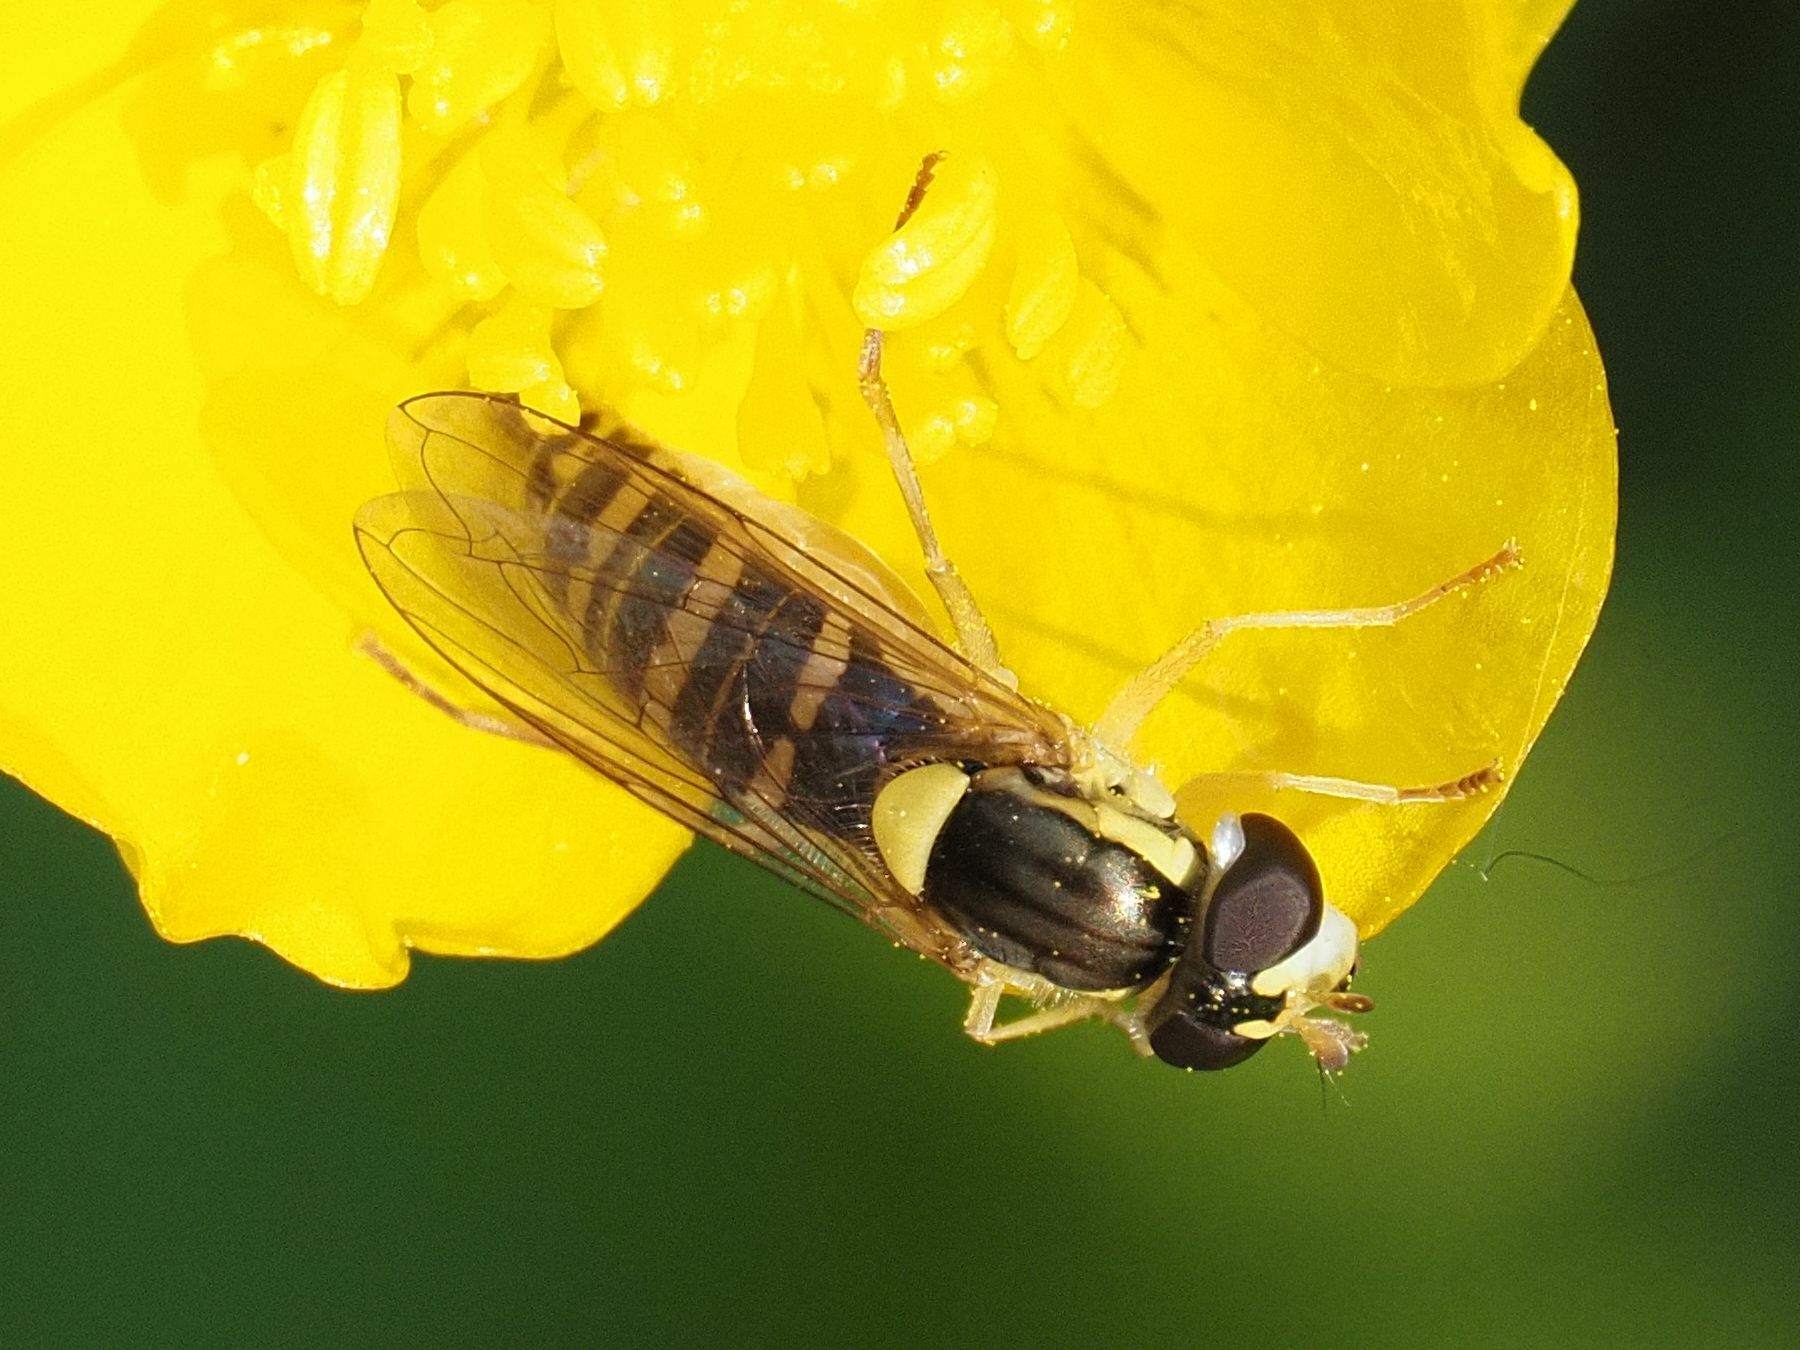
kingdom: Animalia
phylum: Arthropoda
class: Insecta
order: Diptera
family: Syrphidae
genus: Sphaerophoria
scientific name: Sphaerophoria
